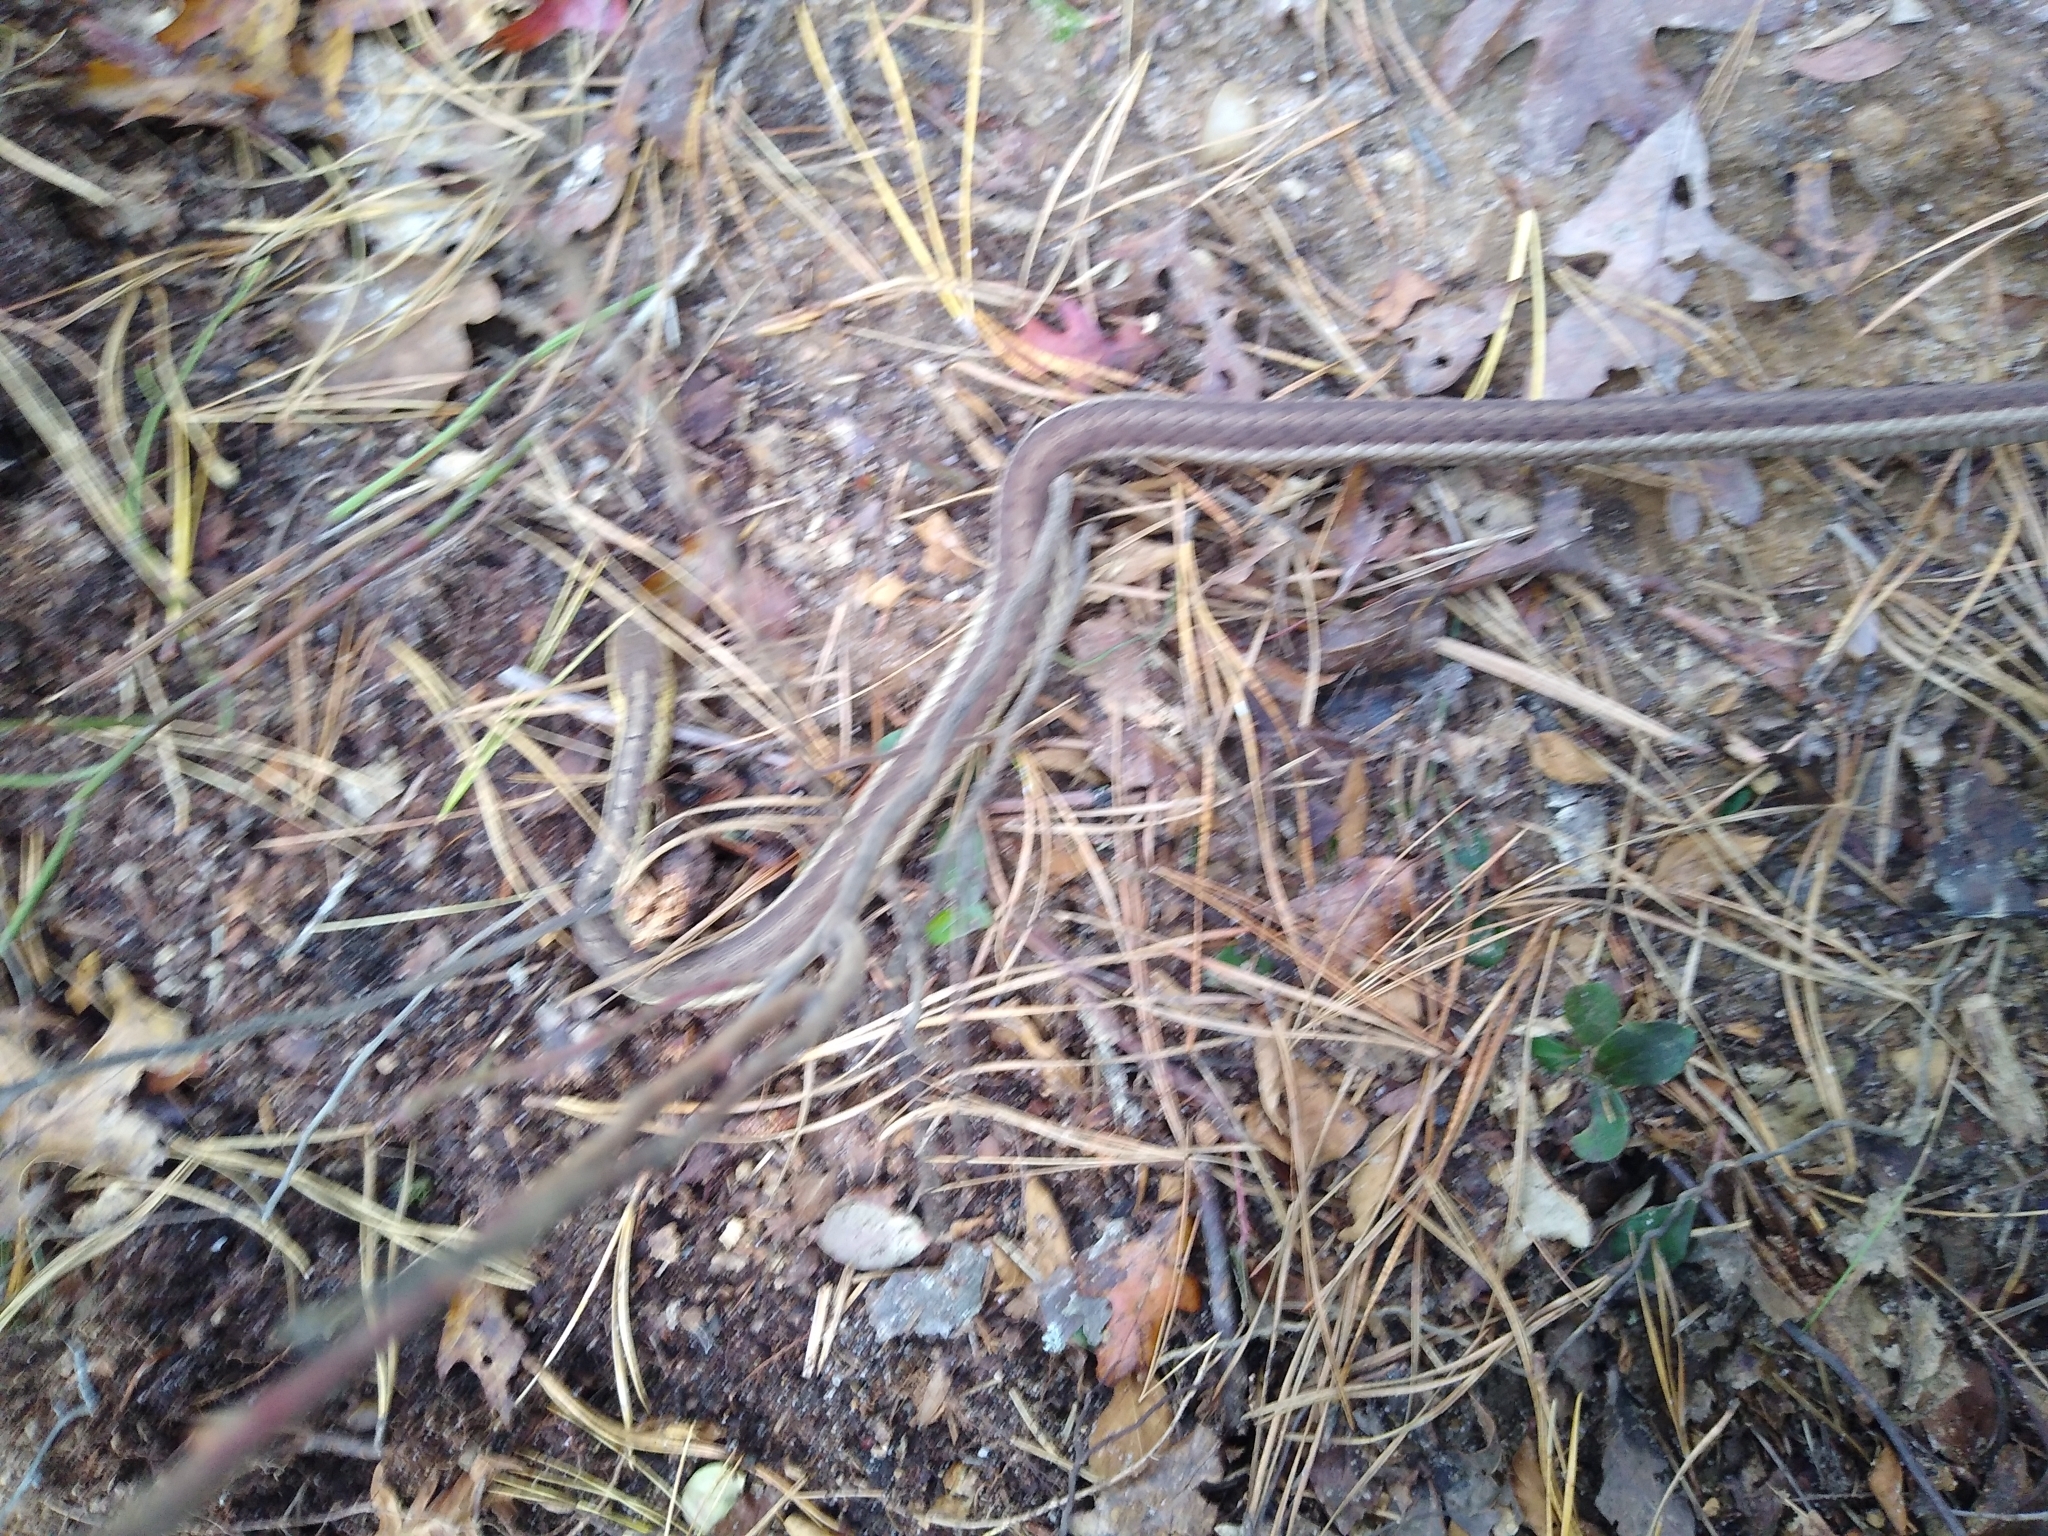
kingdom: Animalia
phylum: Chordata
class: Squamata
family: Colubridae
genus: Thamnophis
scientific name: Thamnophis sirtalis
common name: Common garter snake
